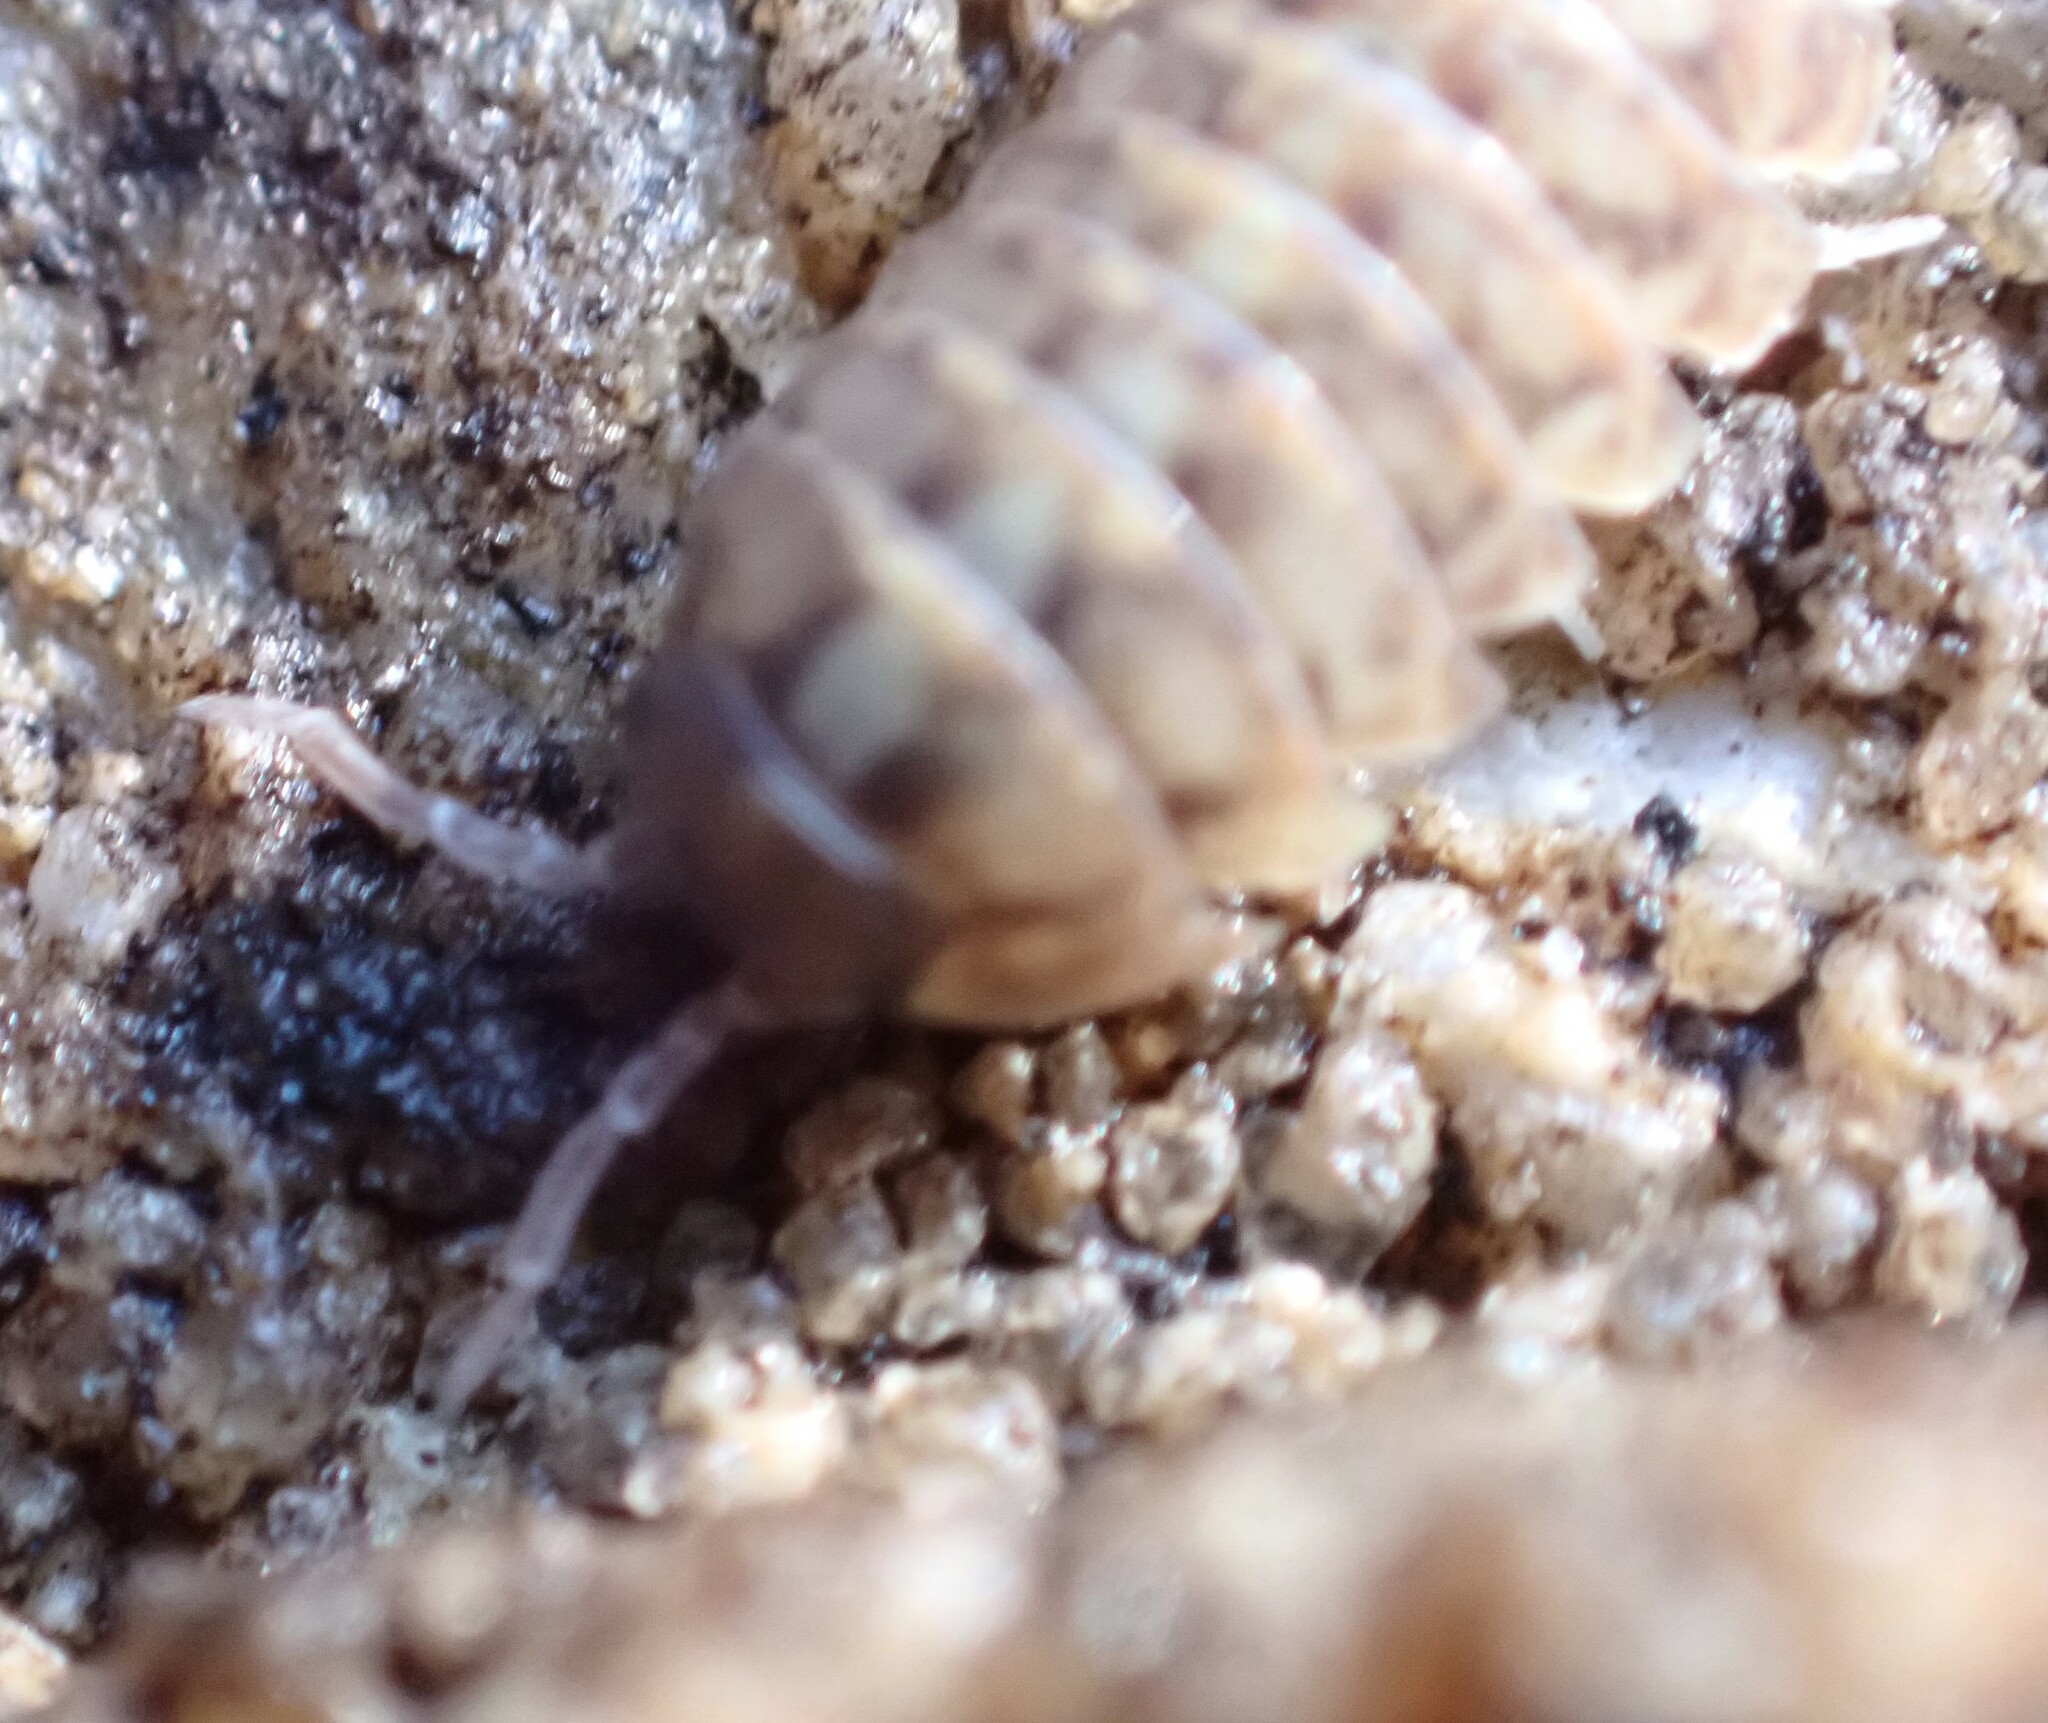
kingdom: Animalia
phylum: Arthropoda
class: Malacostraca
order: Isopoda
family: Armadillidiidae
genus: Armadillidium
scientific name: Armadillidium vulgare
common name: Common pill woodlouse
